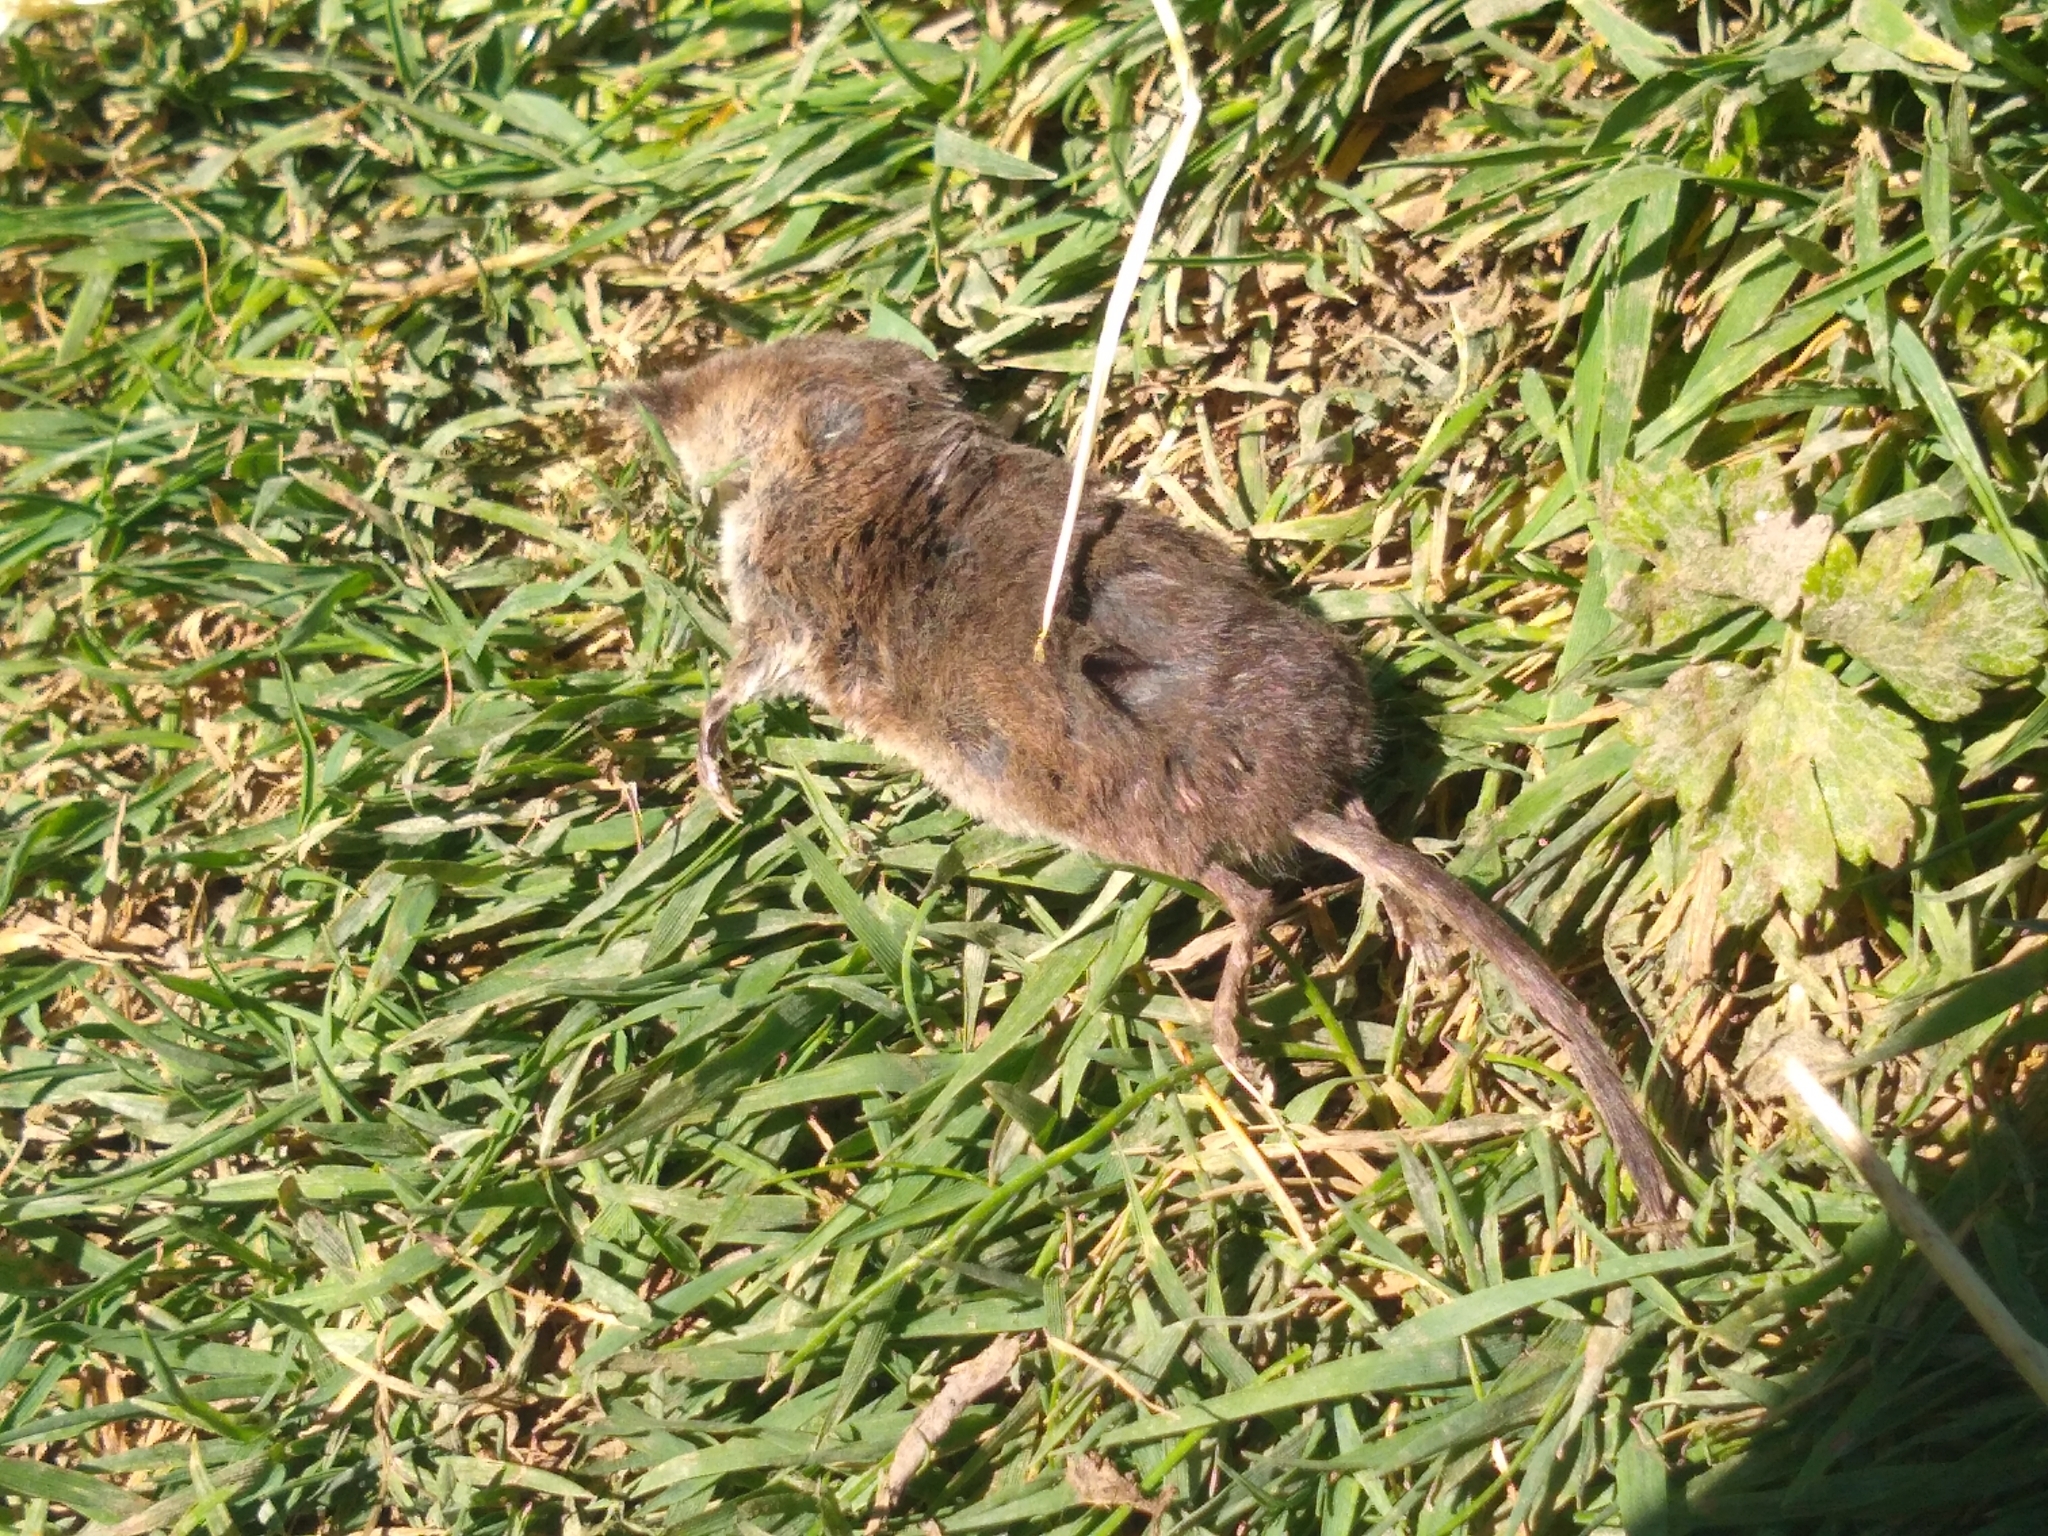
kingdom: Animalia
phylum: Chordata
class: Mammalia
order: Soricomorpha
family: Soricidae
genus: Sorex
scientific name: Sorex araneus
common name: Common shrew
